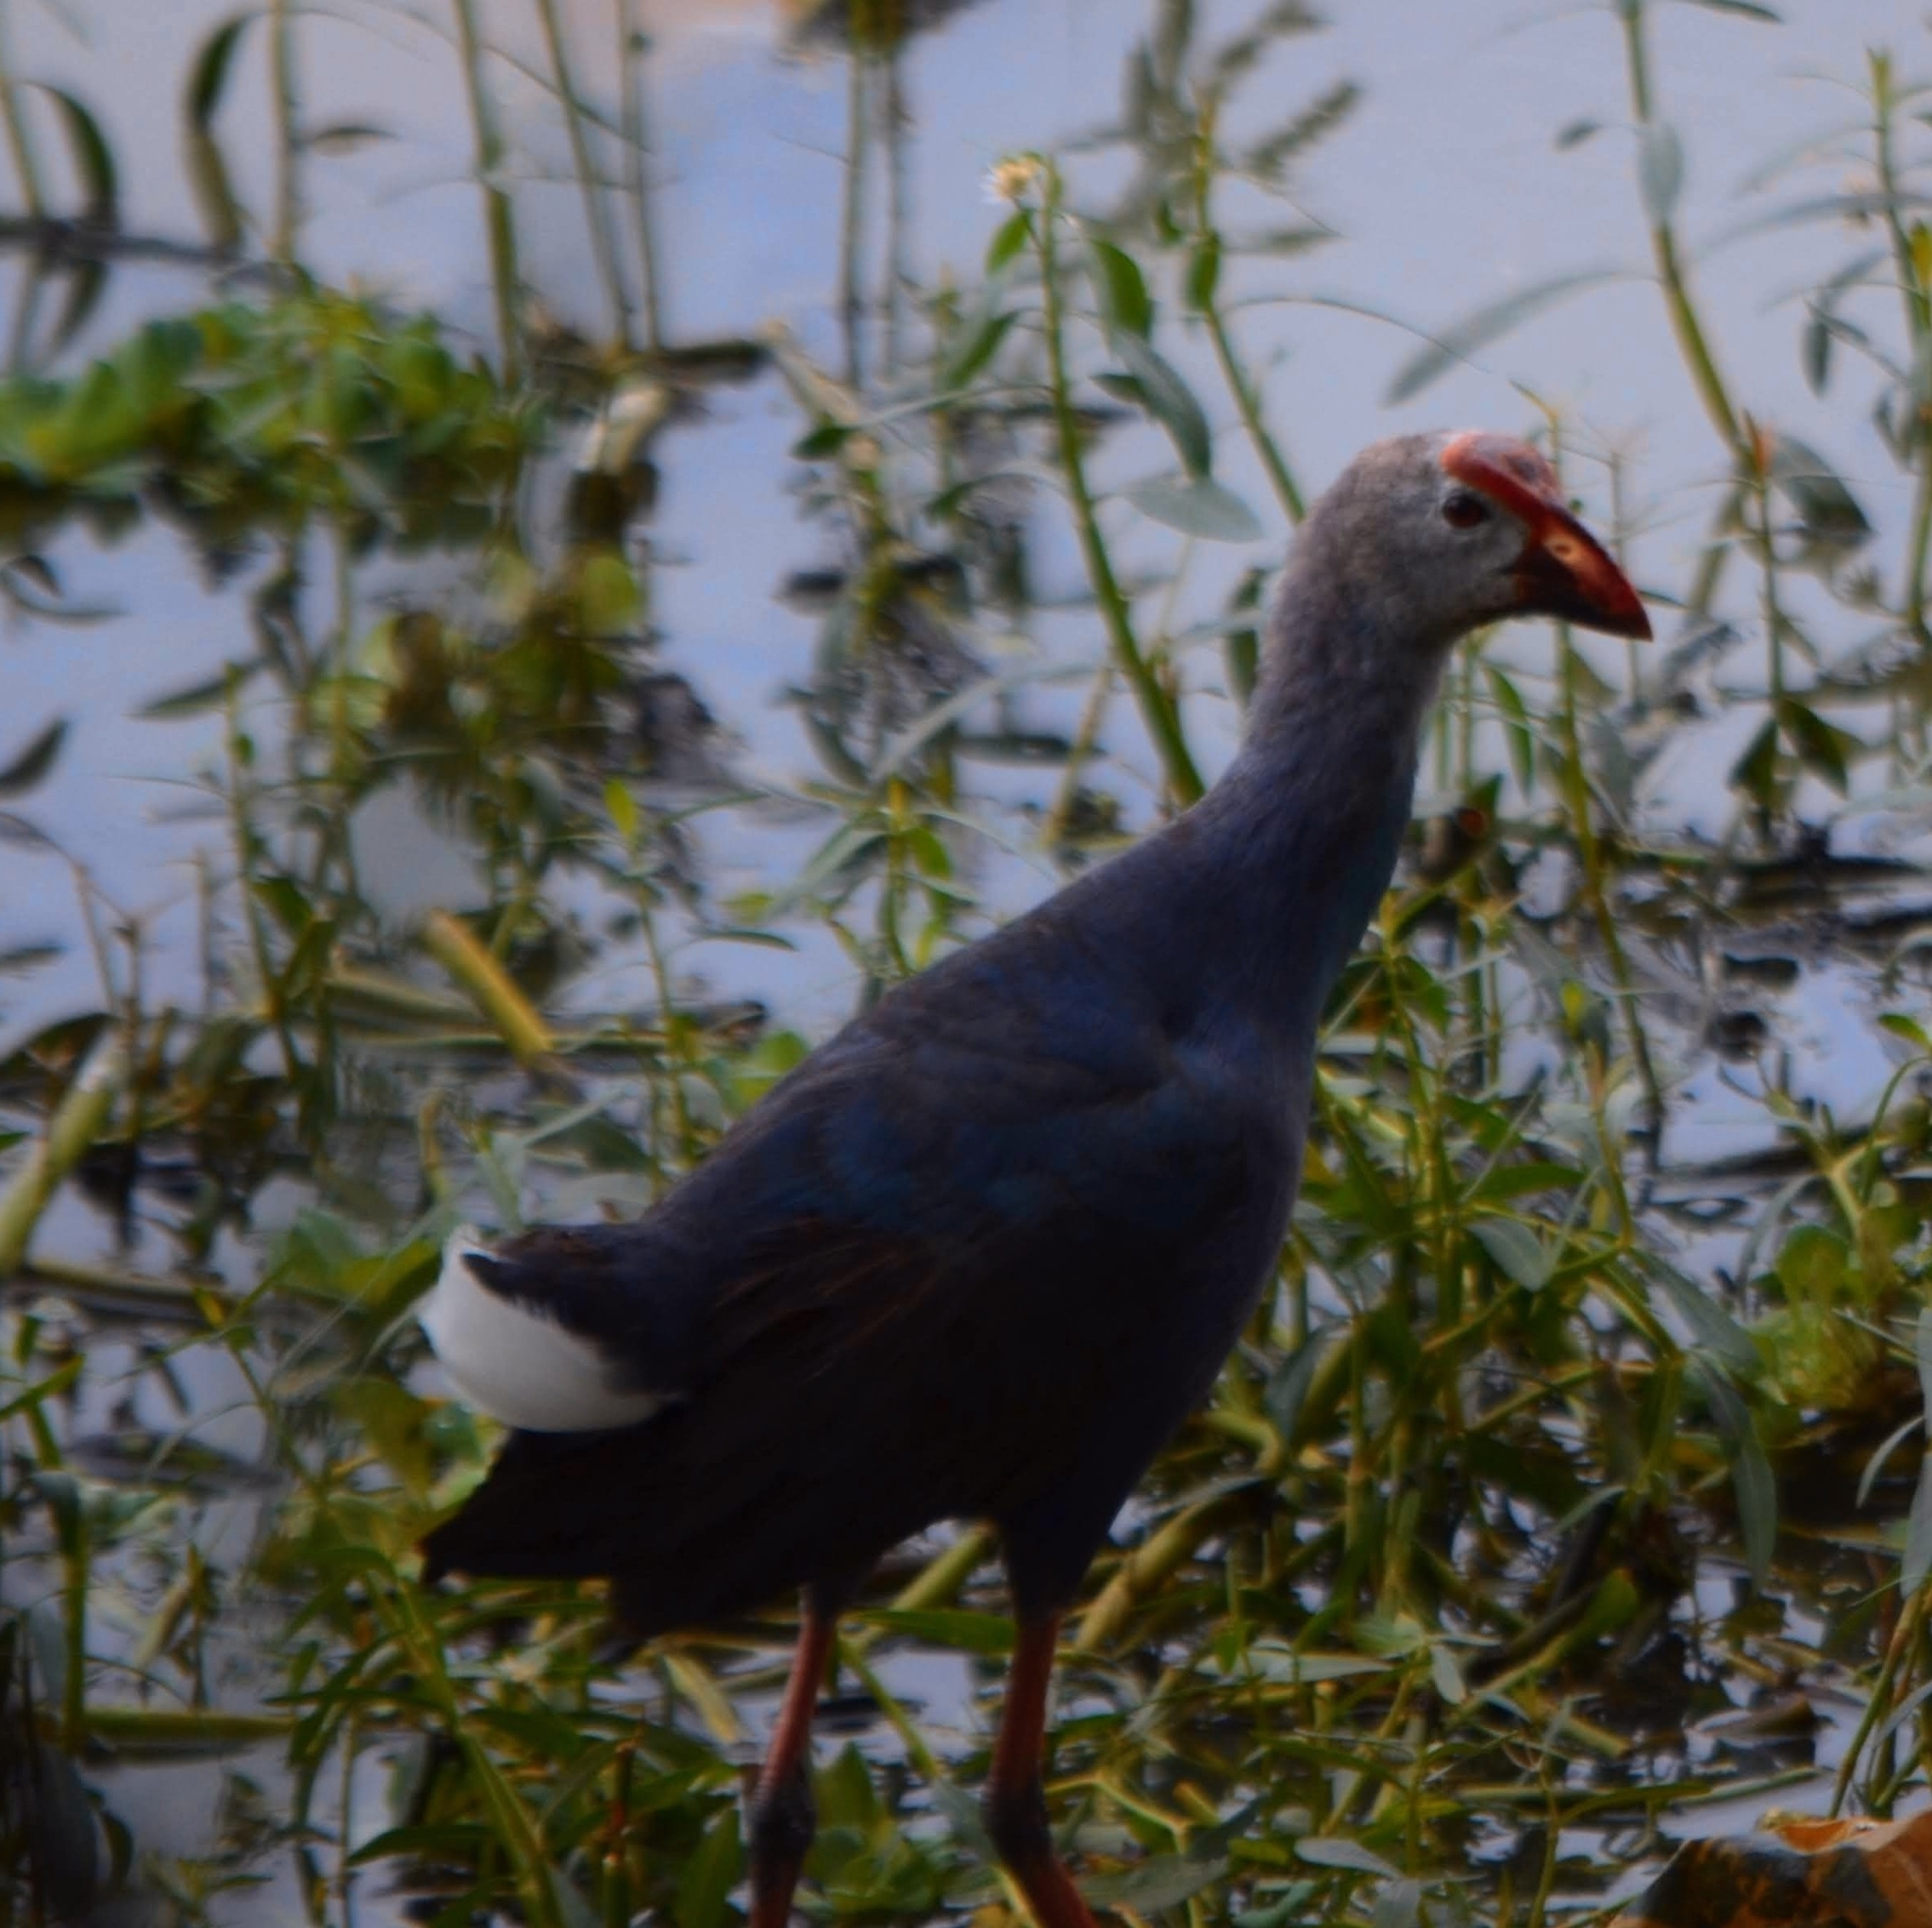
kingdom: Animalia
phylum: Chordata
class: Aves
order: Gruiformes
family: Rallidae
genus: Porphyrio
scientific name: Porphyrio porphyrio
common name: Purple swamphen
